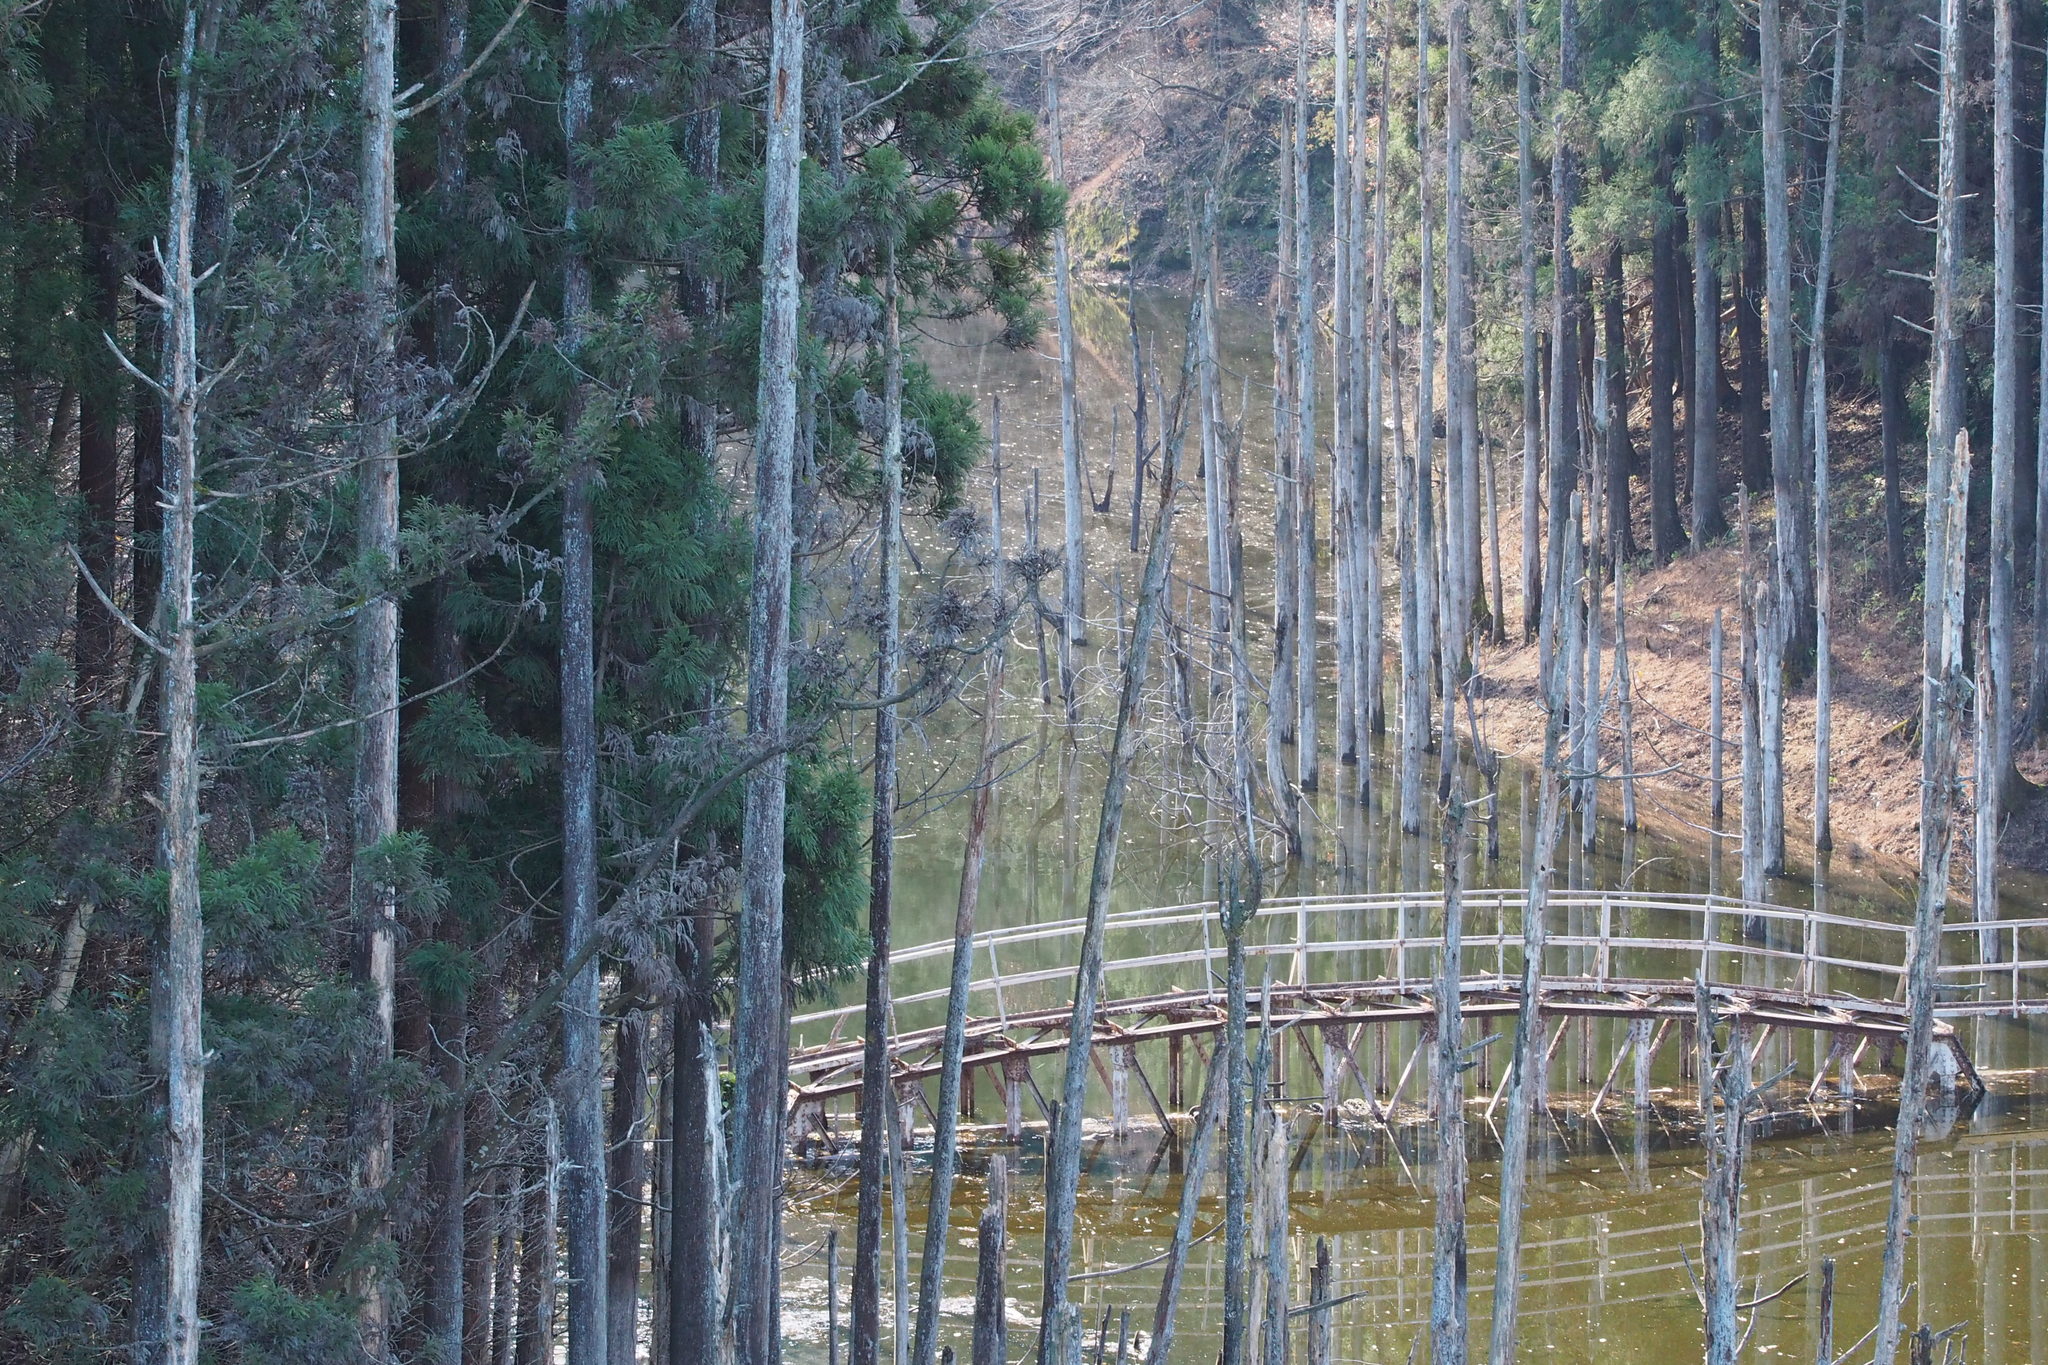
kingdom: Plantae
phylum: Tracheophyta
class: Pinopsida
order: Pinales
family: Cupressaceae
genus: Cryptomeria
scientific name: Cryptomeria japonica
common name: Japanese cedar
